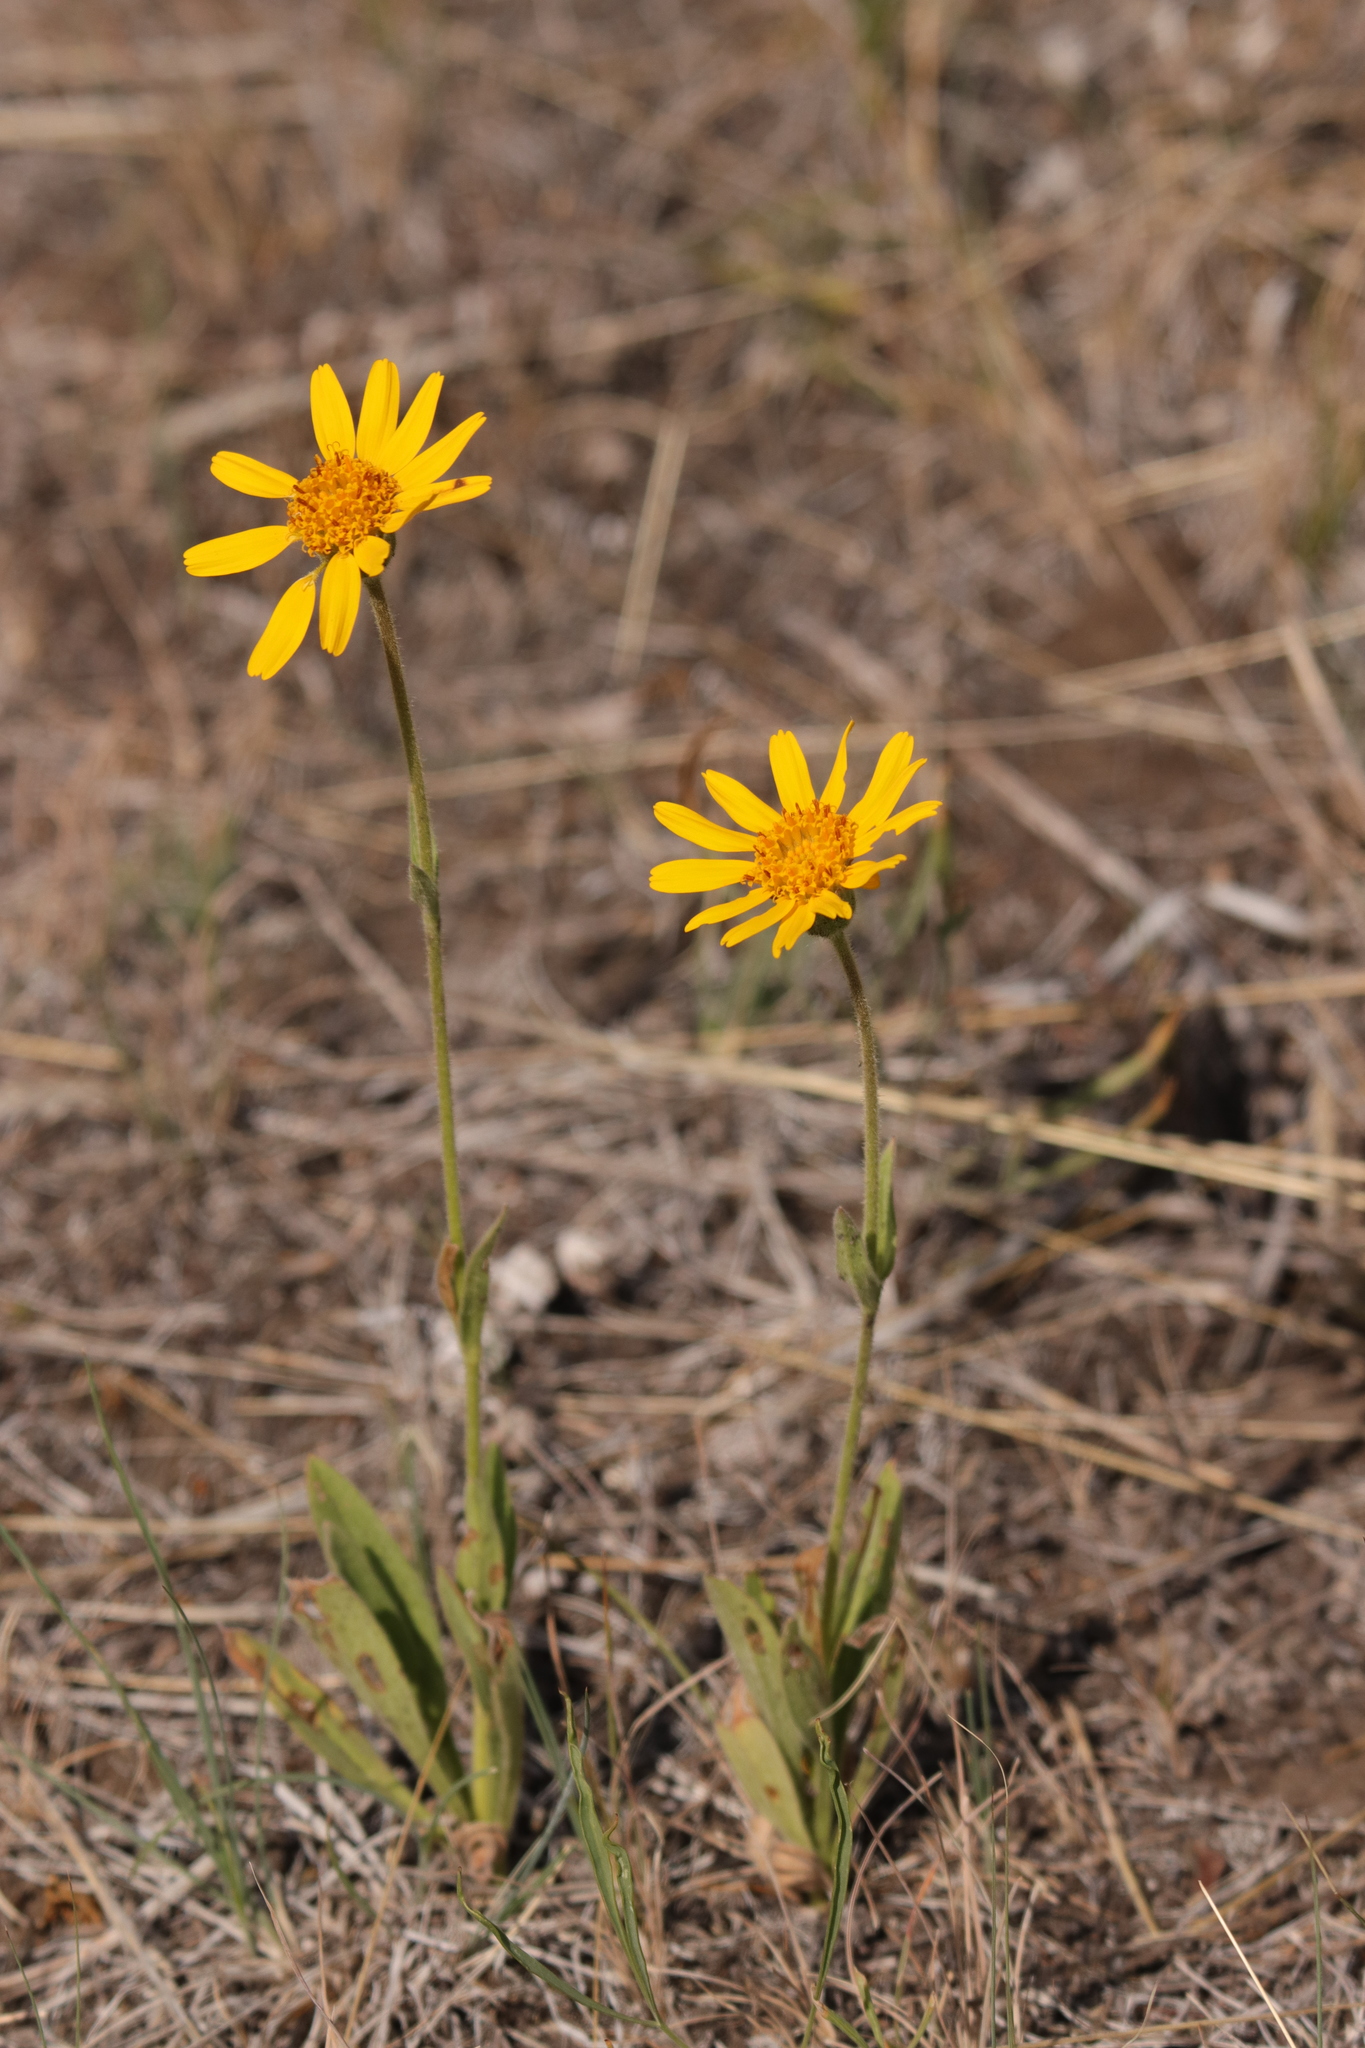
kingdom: Plantae
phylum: Tracheophyta
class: Magnoliopsida
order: Asterales
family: Asteraceae
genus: Arnica
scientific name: Arnica fulgens
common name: Foothill arnica
